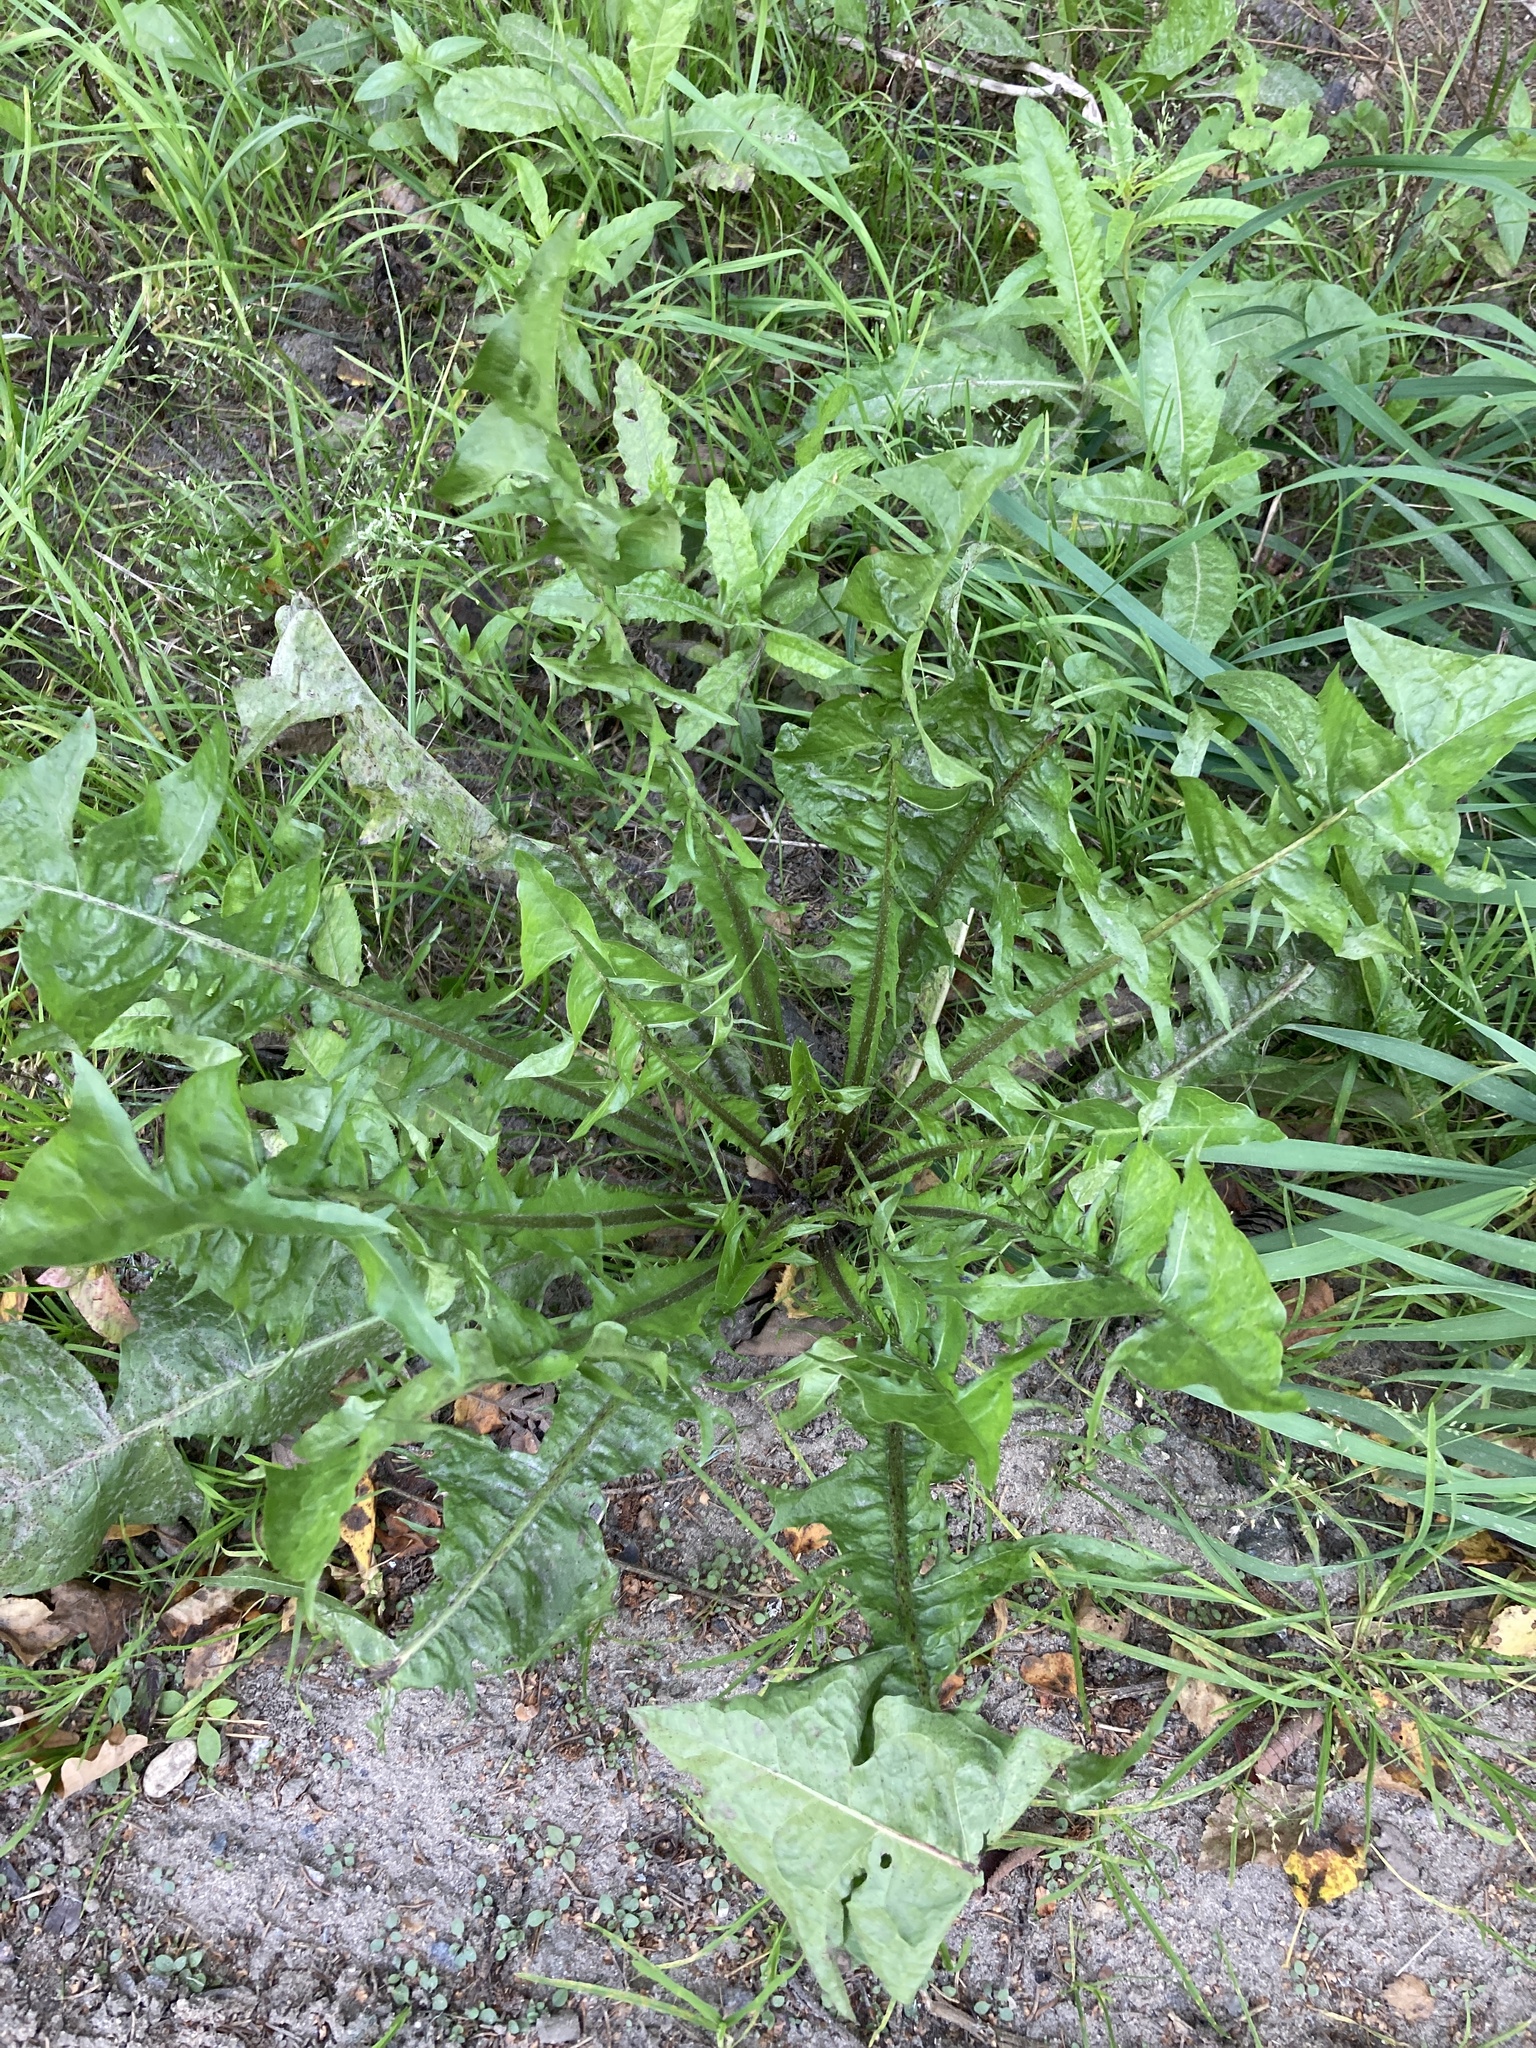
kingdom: Plantae
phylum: Tracheophyta
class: Magnoliopsida
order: Asterales
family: Asteraceae
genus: Taraxacum
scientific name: Taraxacum officinale
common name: Common dandelion
